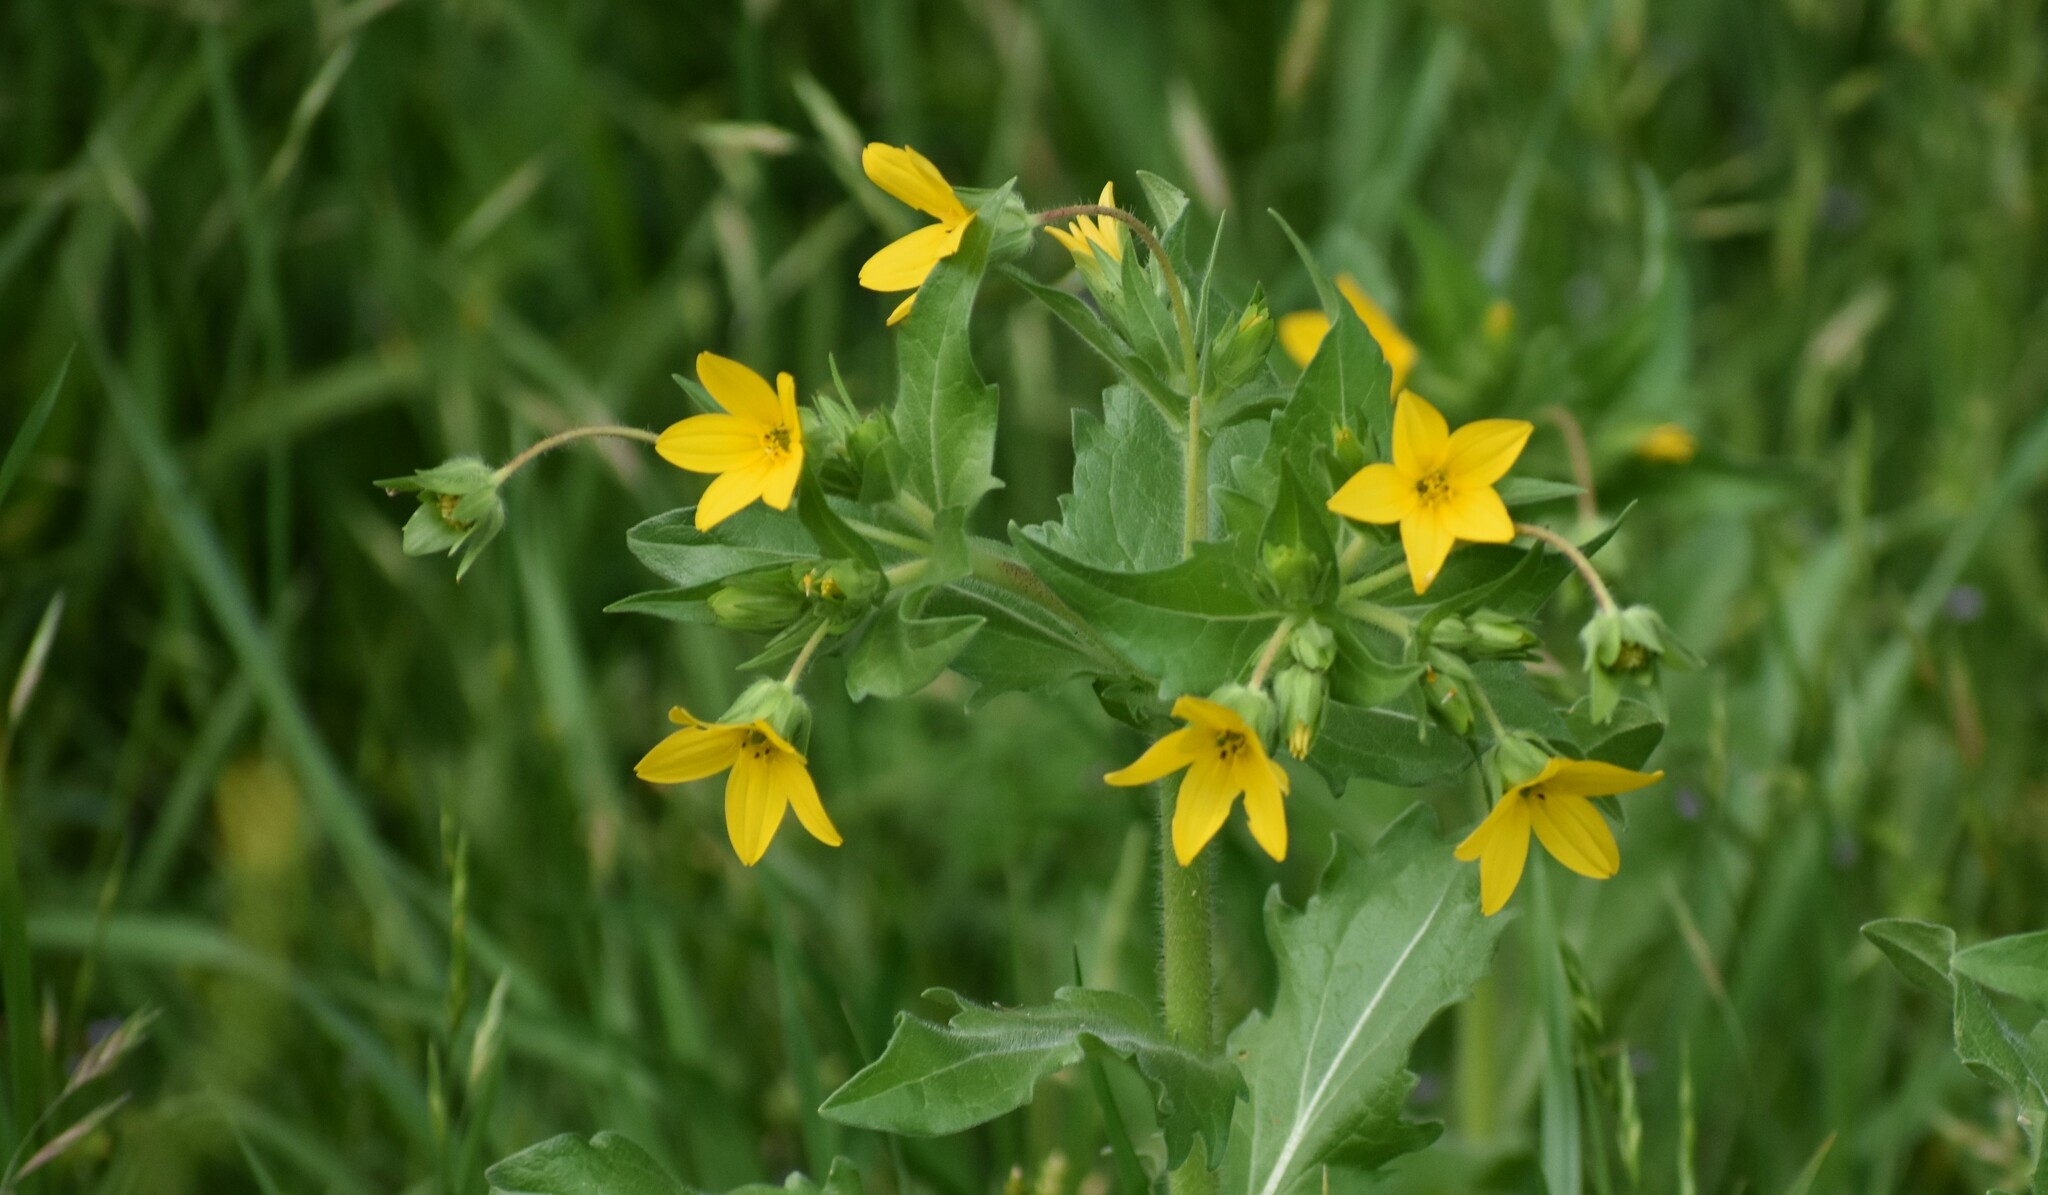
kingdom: Plantae
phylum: Tracheophyta
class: Magnoliopsida
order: Asterales
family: Asteraceae
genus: Lindheimera
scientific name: Lindheimera texana
